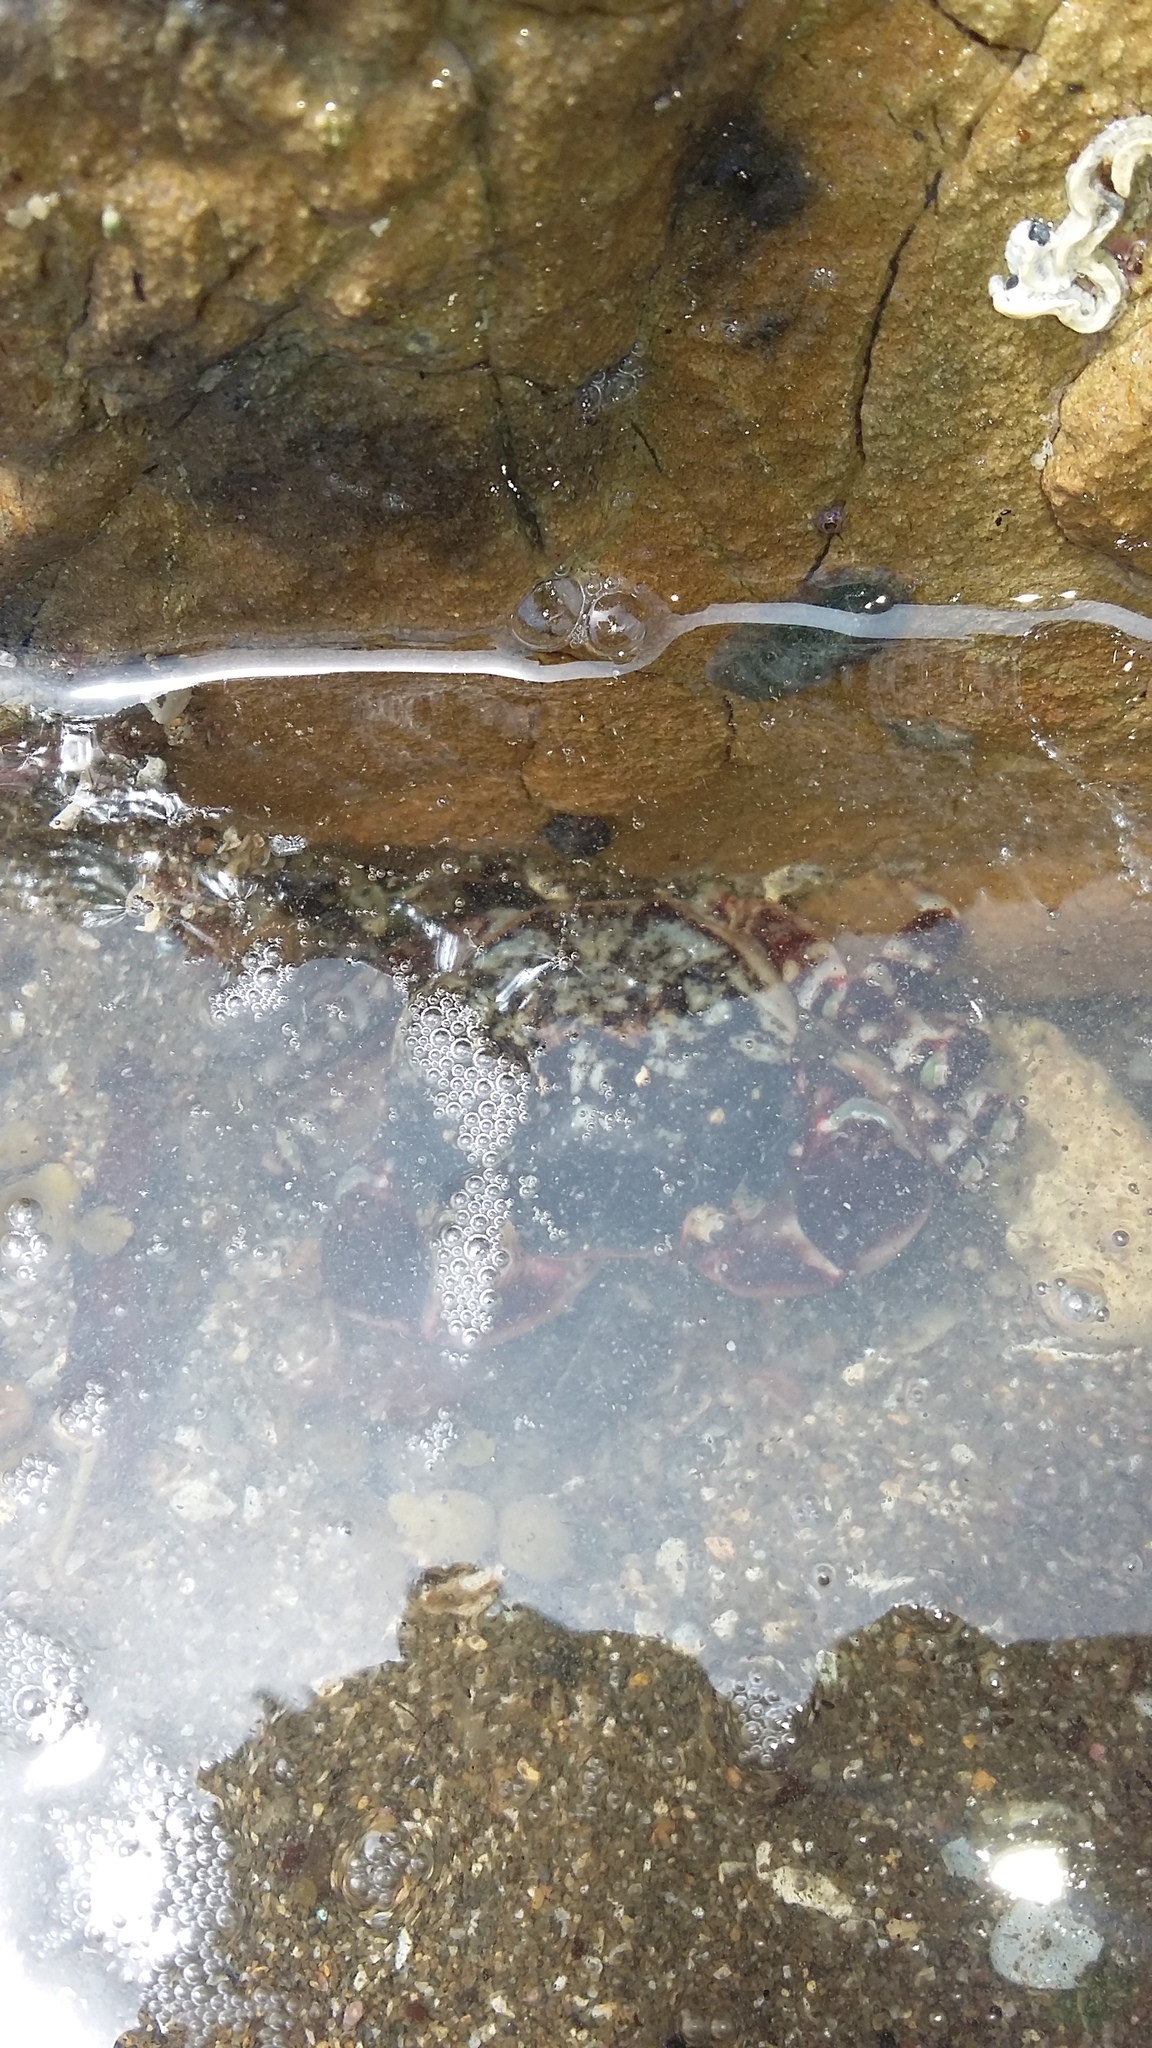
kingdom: Animalia
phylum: Arthropoda
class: Malacostraca
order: Decapoda
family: Varunidae
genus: Hemigrapsus
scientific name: Hemigrapsus sexdentatus
